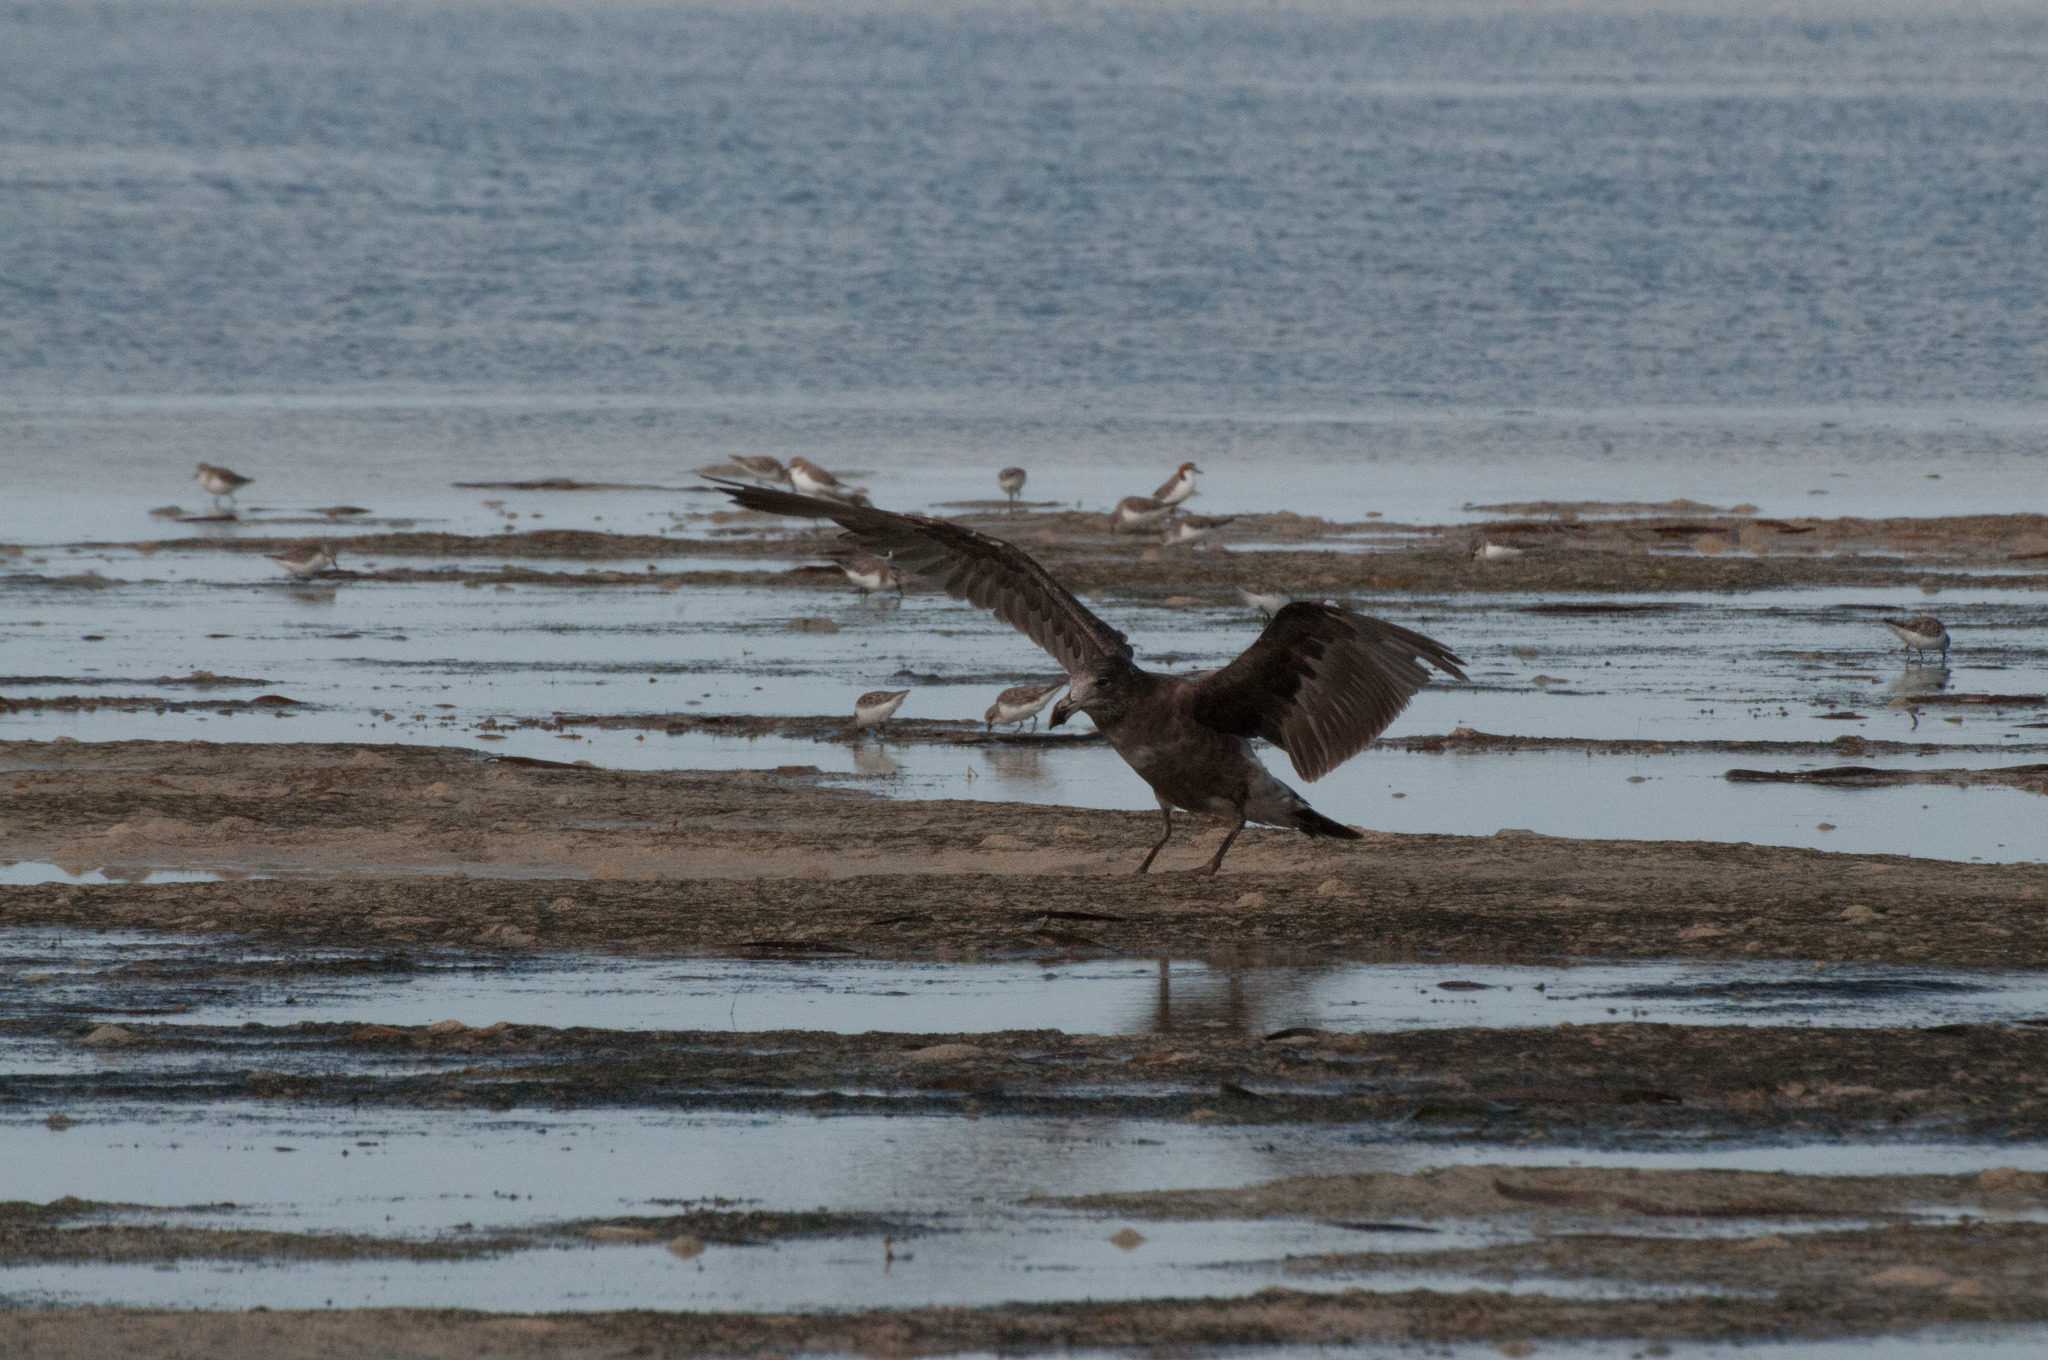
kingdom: Animalia
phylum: Chordata
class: Aves
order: Charadriiformes
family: Laridae
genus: Larus
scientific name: Larus pacificus
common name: Pacific gull
